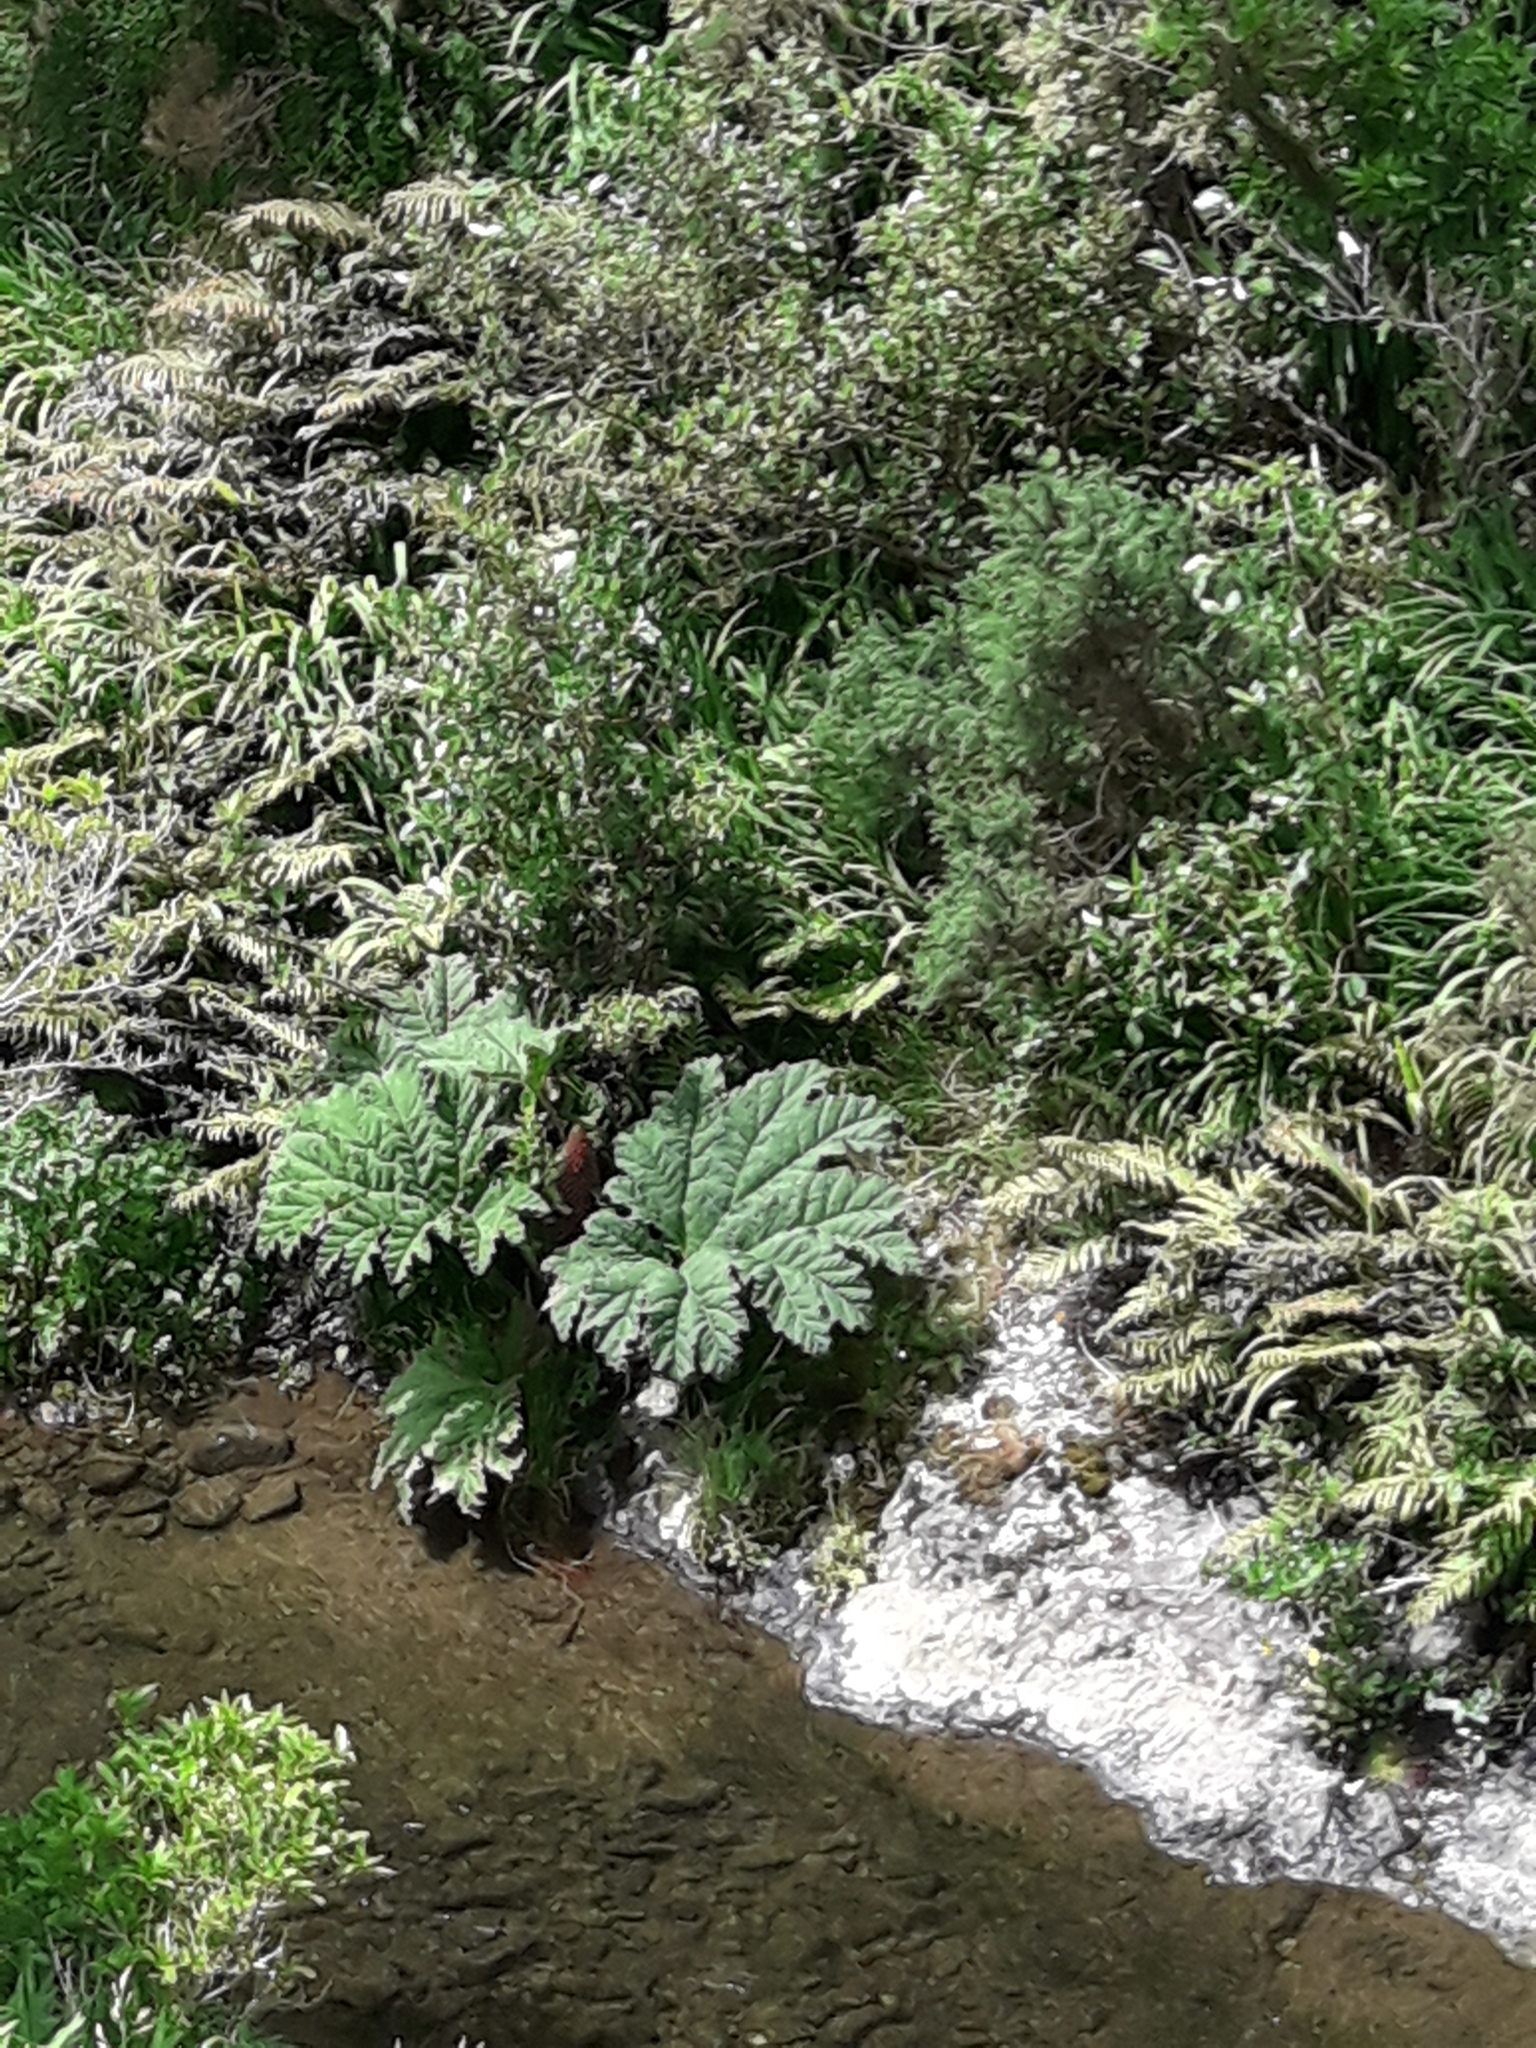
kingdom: Plantae
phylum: Tracheophyta
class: Magnoliopsida
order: Gunnerales
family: Gunneraceae
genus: Gunnera
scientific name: Gunnera tinctoria
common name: Giant-rhubarb
